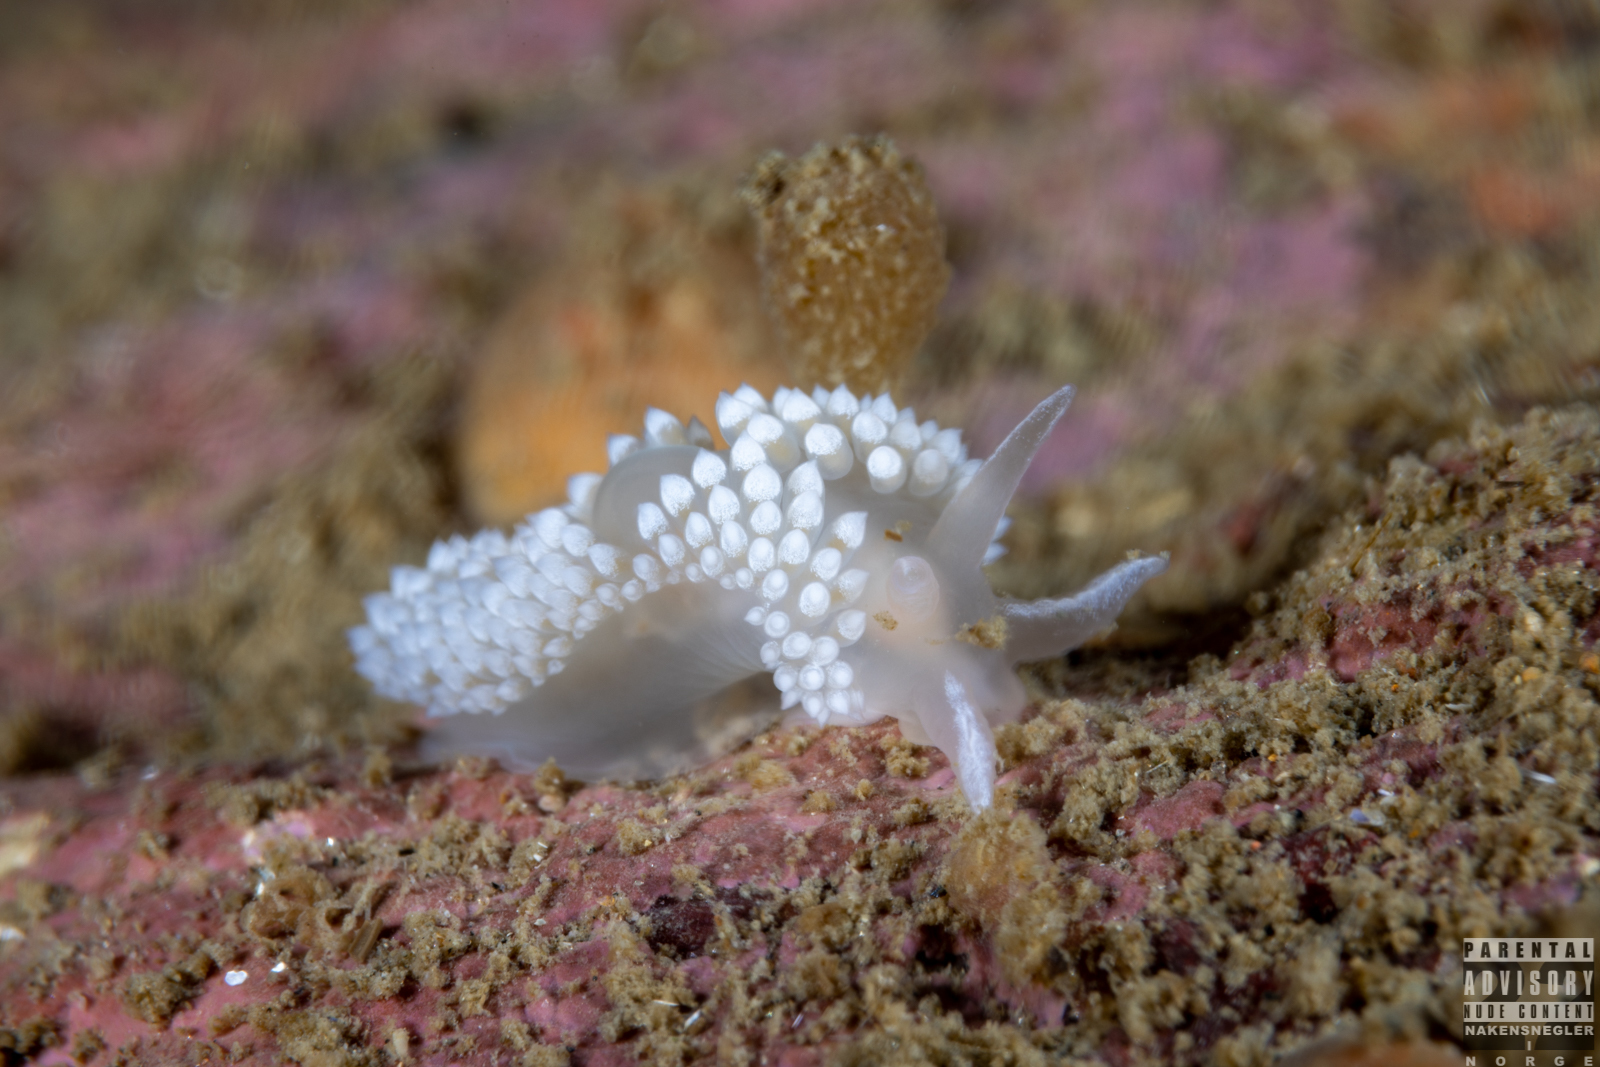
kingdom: Animalia
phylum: Mollusca
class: Gastropoda
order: Nudibranchia
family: Coryphellidae
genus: Coryphella
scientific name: Coryphella verrucosa
